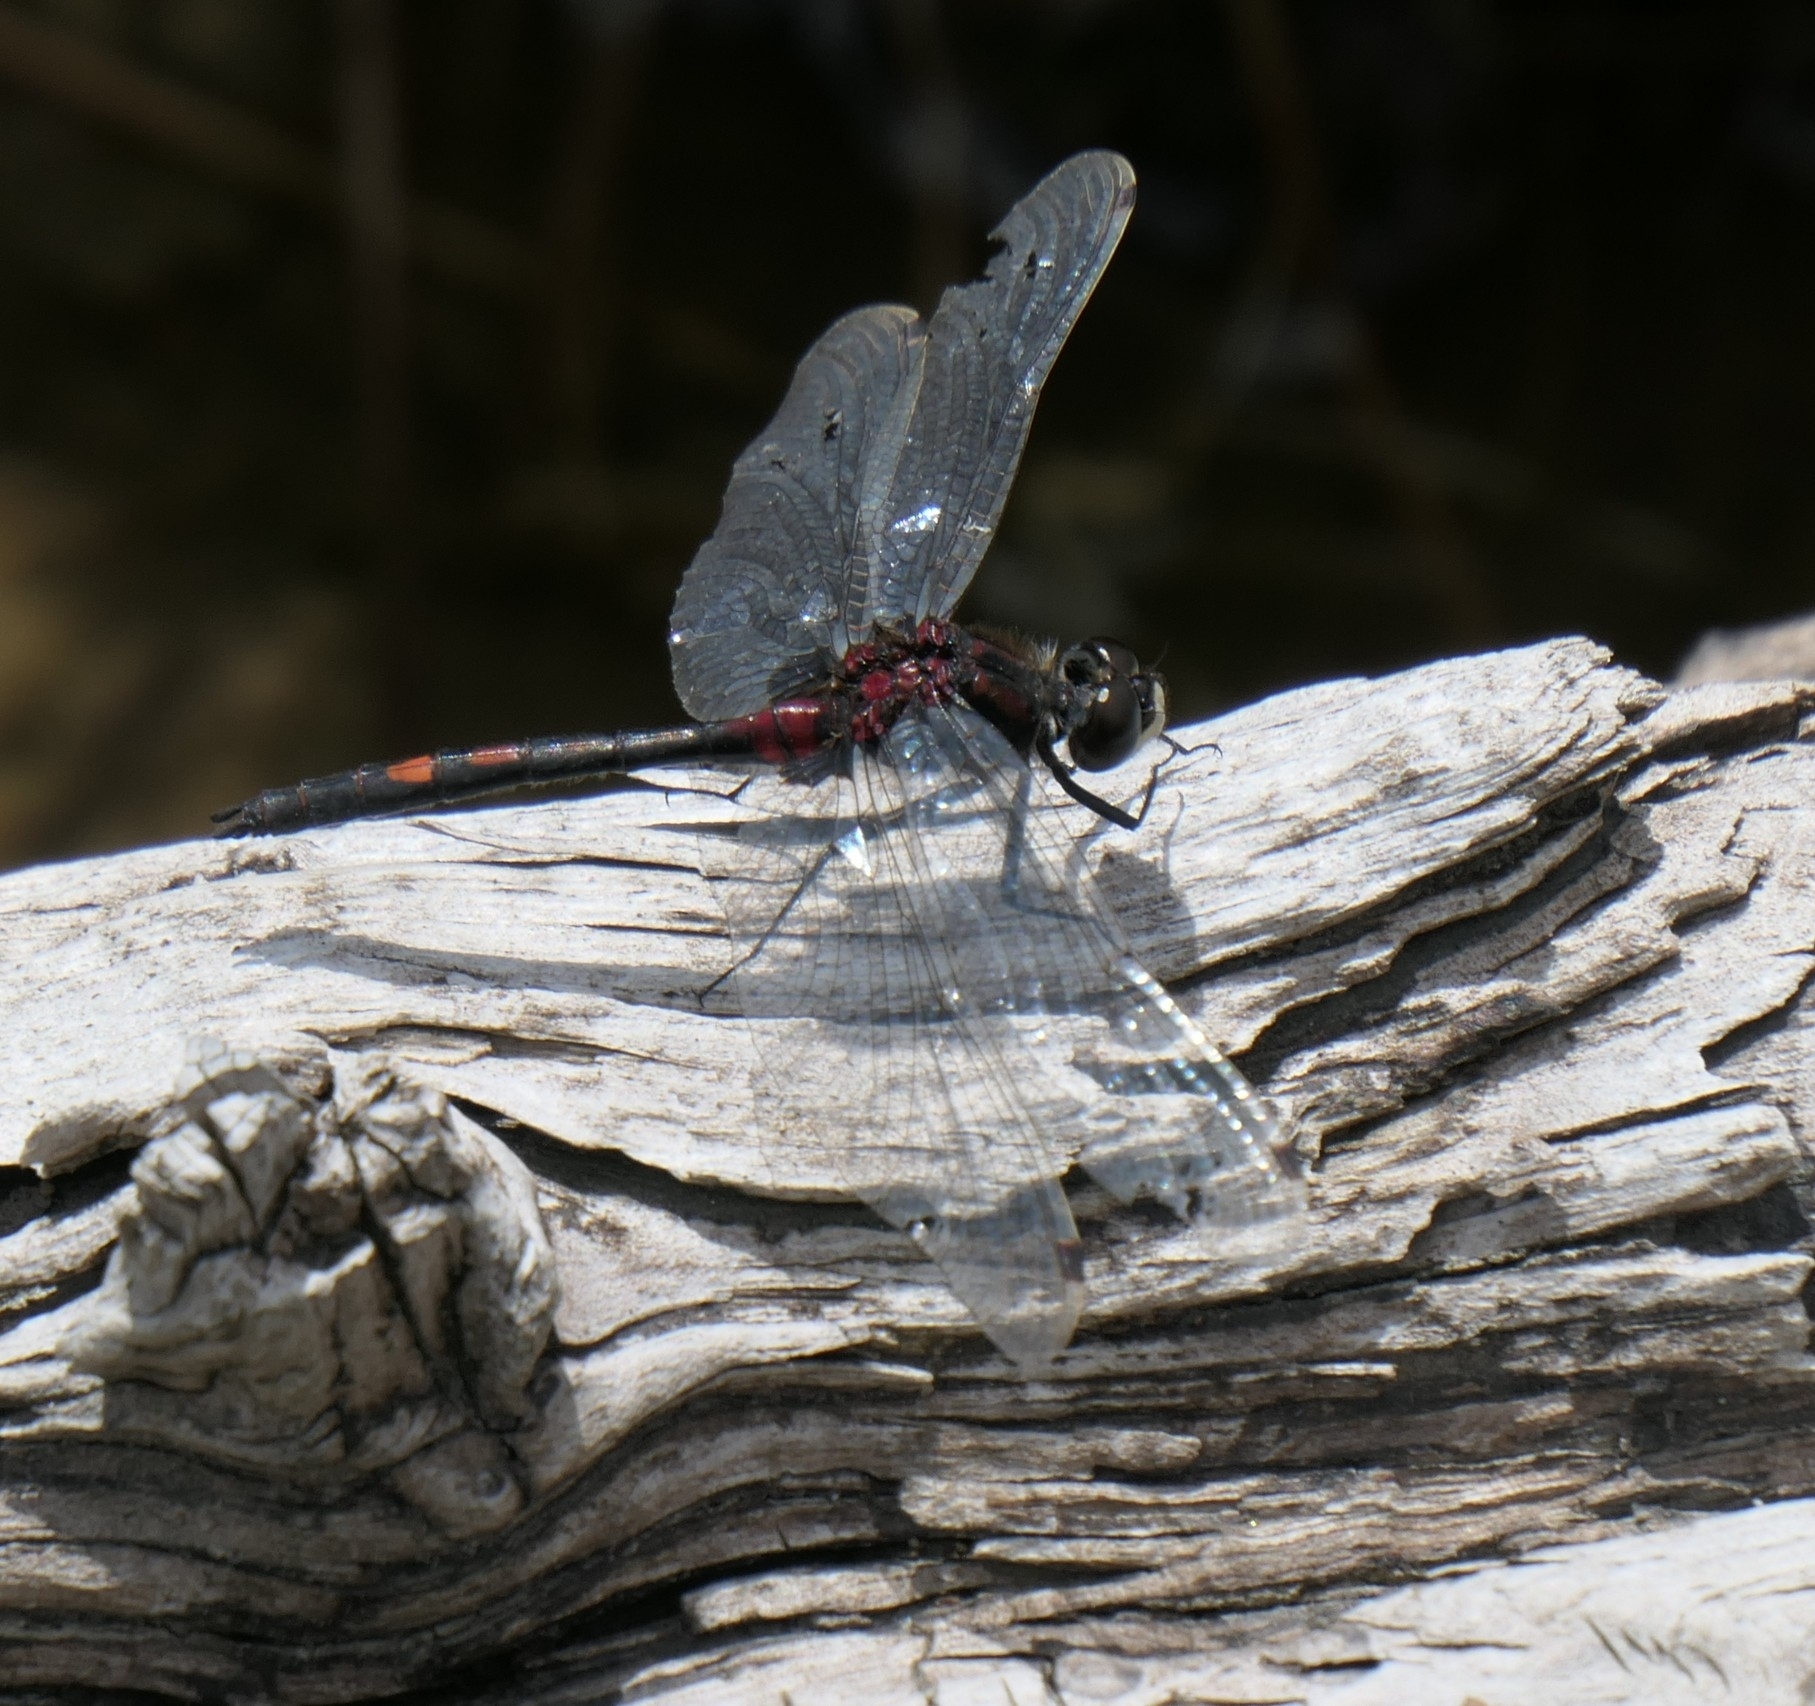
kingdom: Animalia
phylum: Arthropoda
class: Insecta
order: Odonata
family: Libellulidae
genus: Leucorrhinia
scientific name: Leucorrhinia dubia
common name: White-faced darter
